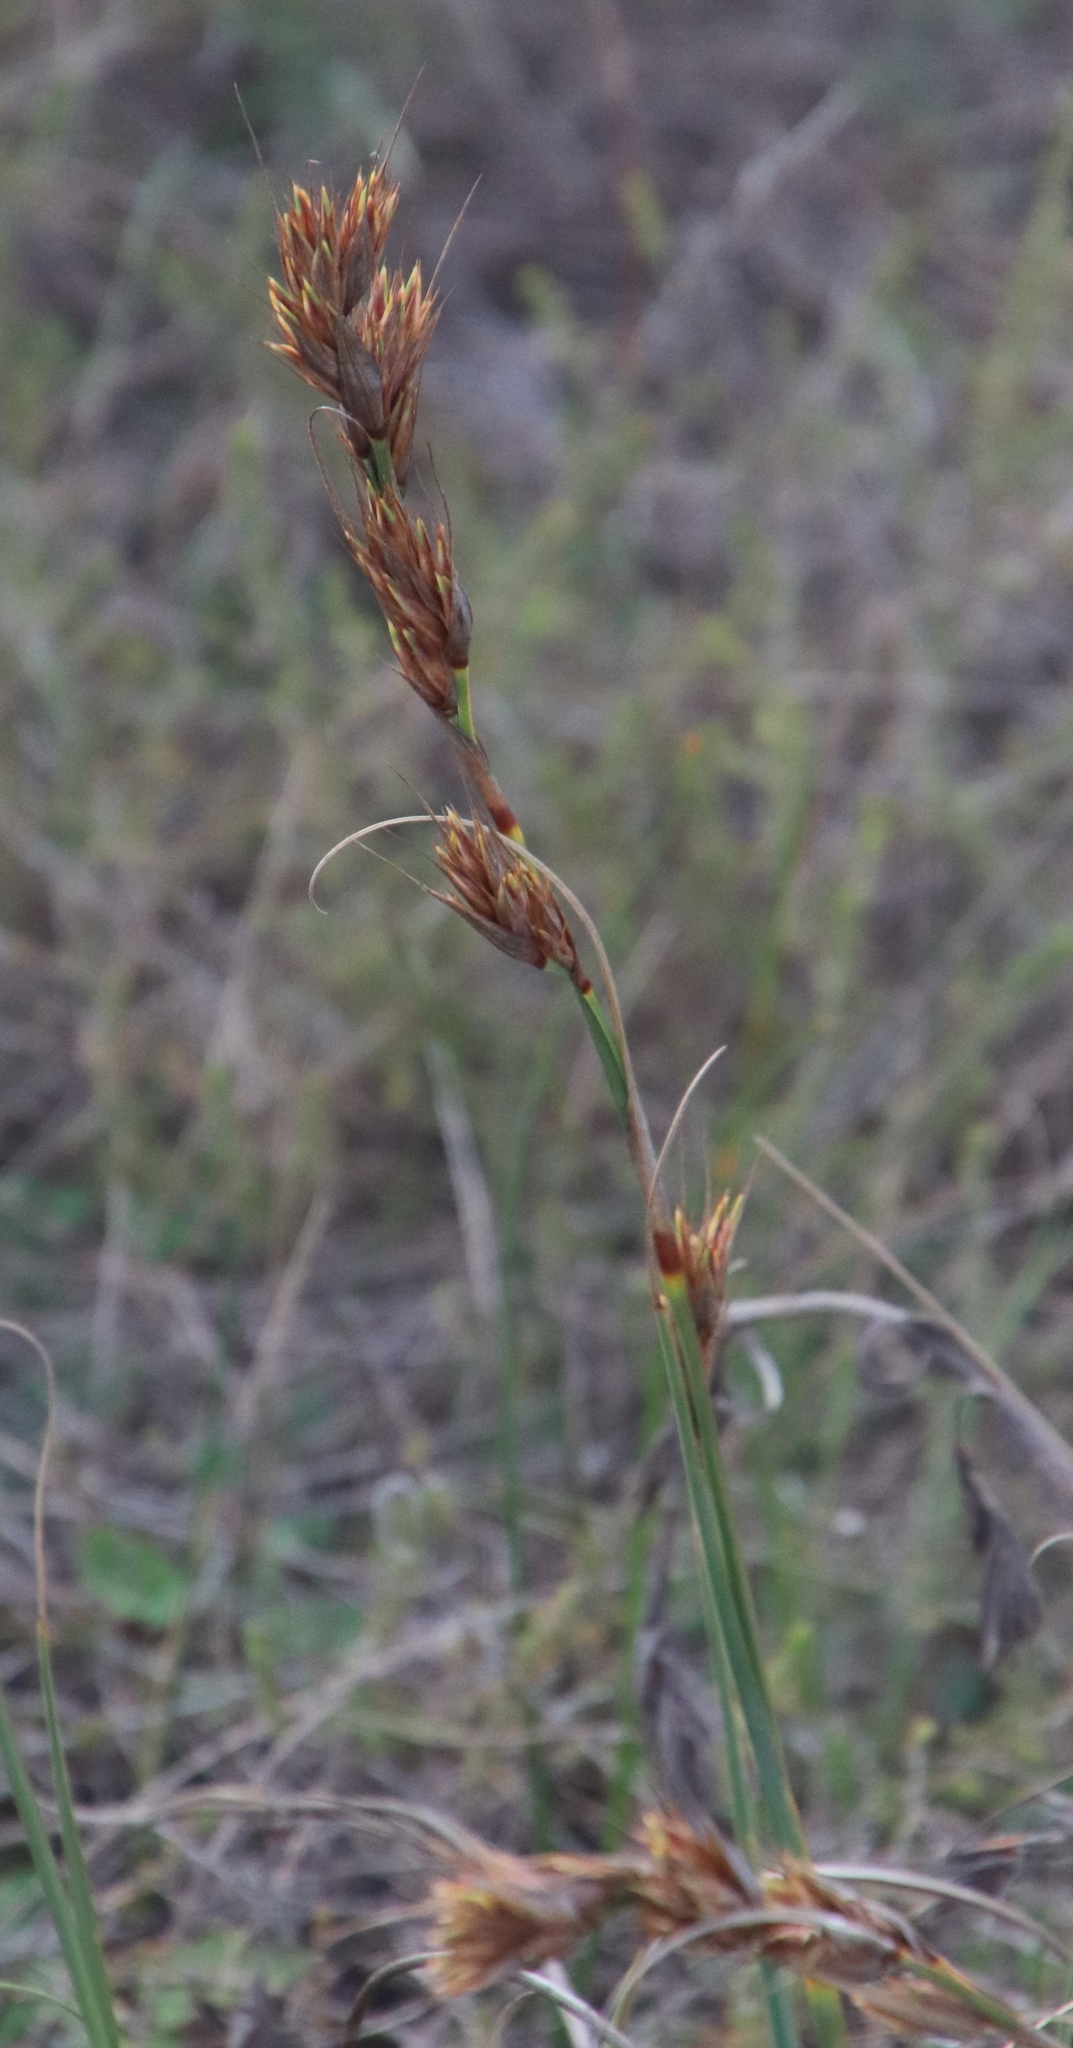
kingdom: Plantae
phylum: Tracheophyta
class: Liliopsida
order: Poales
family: Cyperaceae
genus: Tetraria
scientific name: Tetraria eximia
